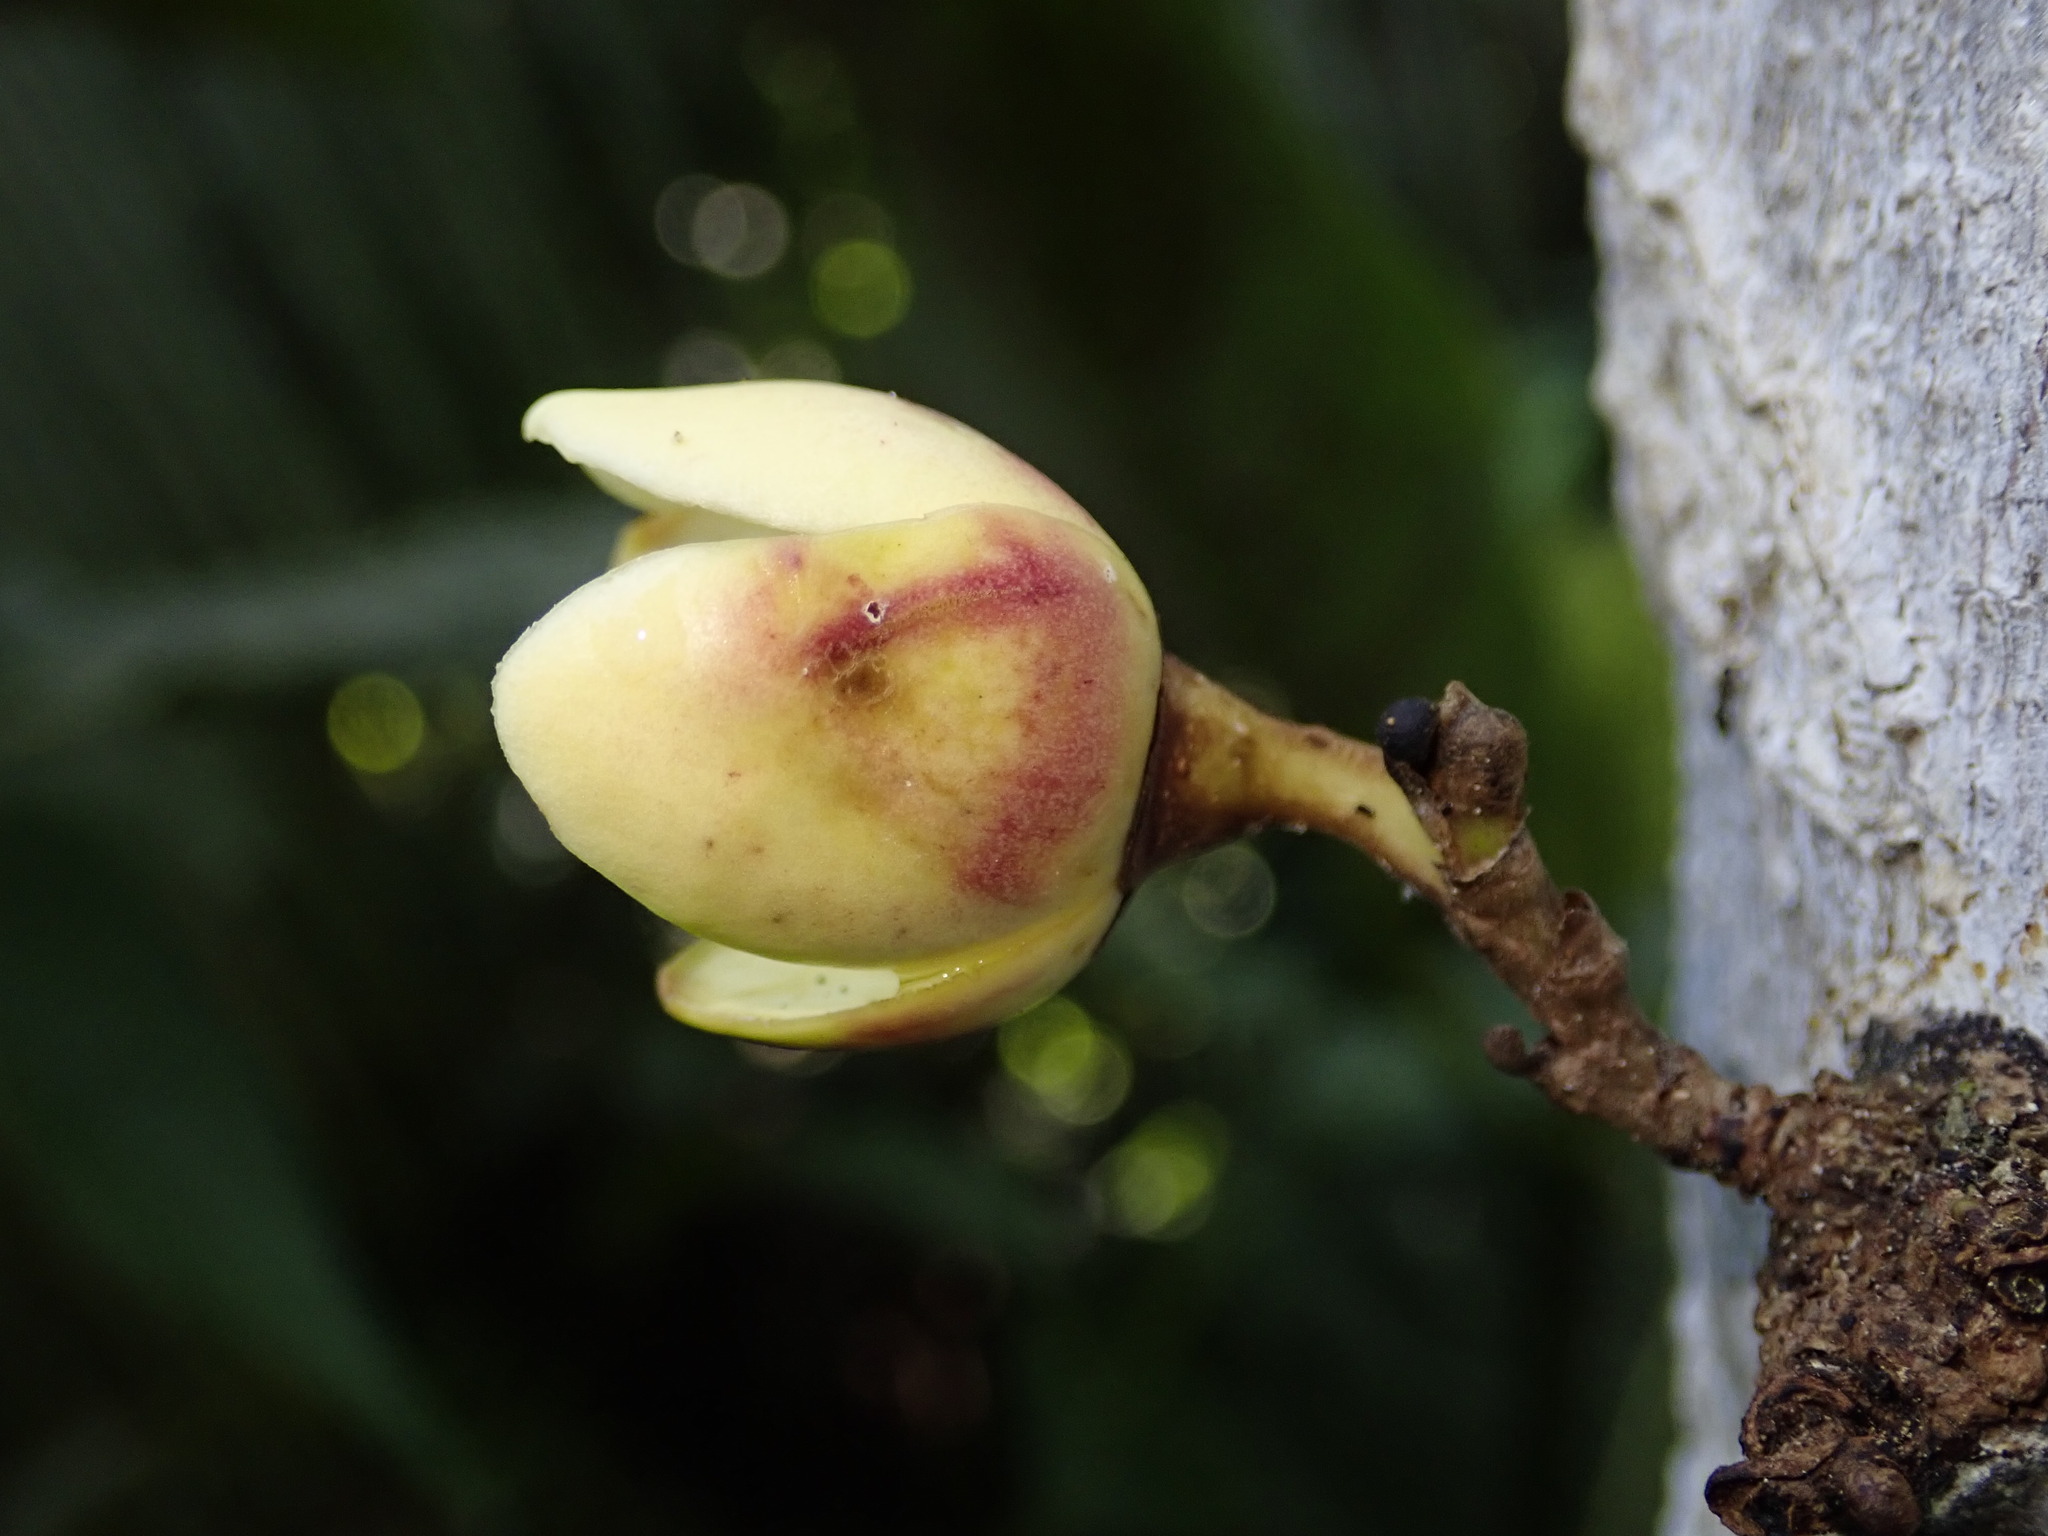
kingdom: Plantae
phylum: Tracheophyta
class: Magnoliopsida
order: Ericales
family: Lecythidaceae
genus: Grias
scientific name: Grias neuberthii
